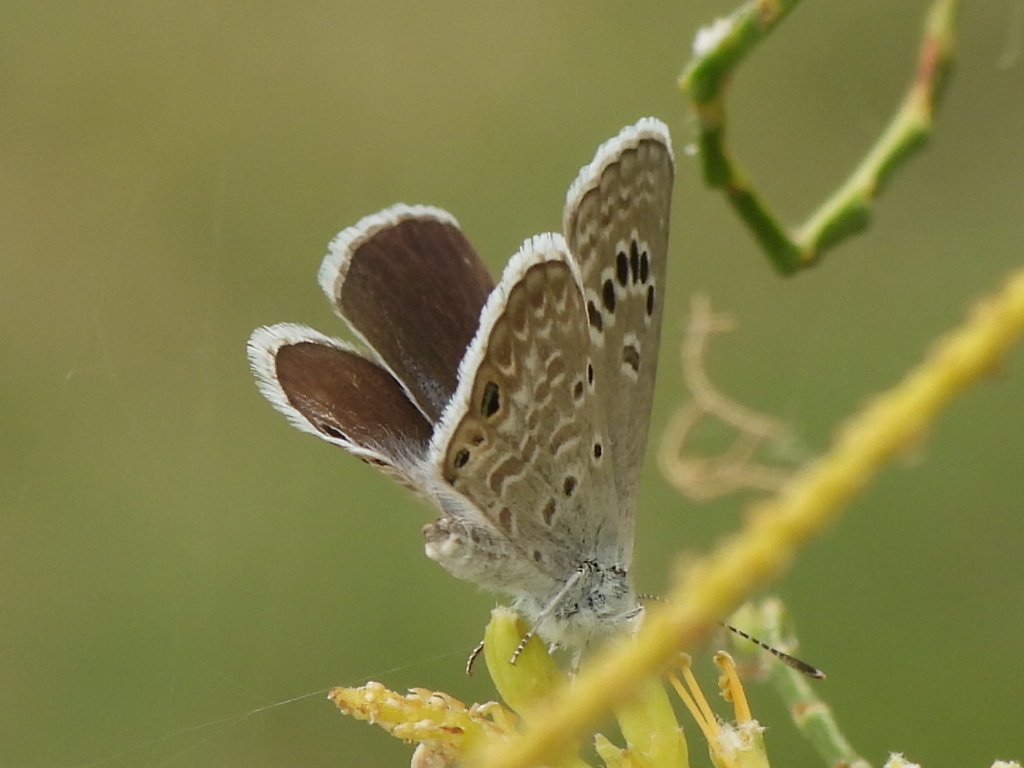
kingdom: Animalia
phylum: Arthropoda
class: Insecta
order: Lepidoptera
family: Lycaenidae
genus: Echinargus
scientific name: Echinargus isola
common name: Reakirt's blue
